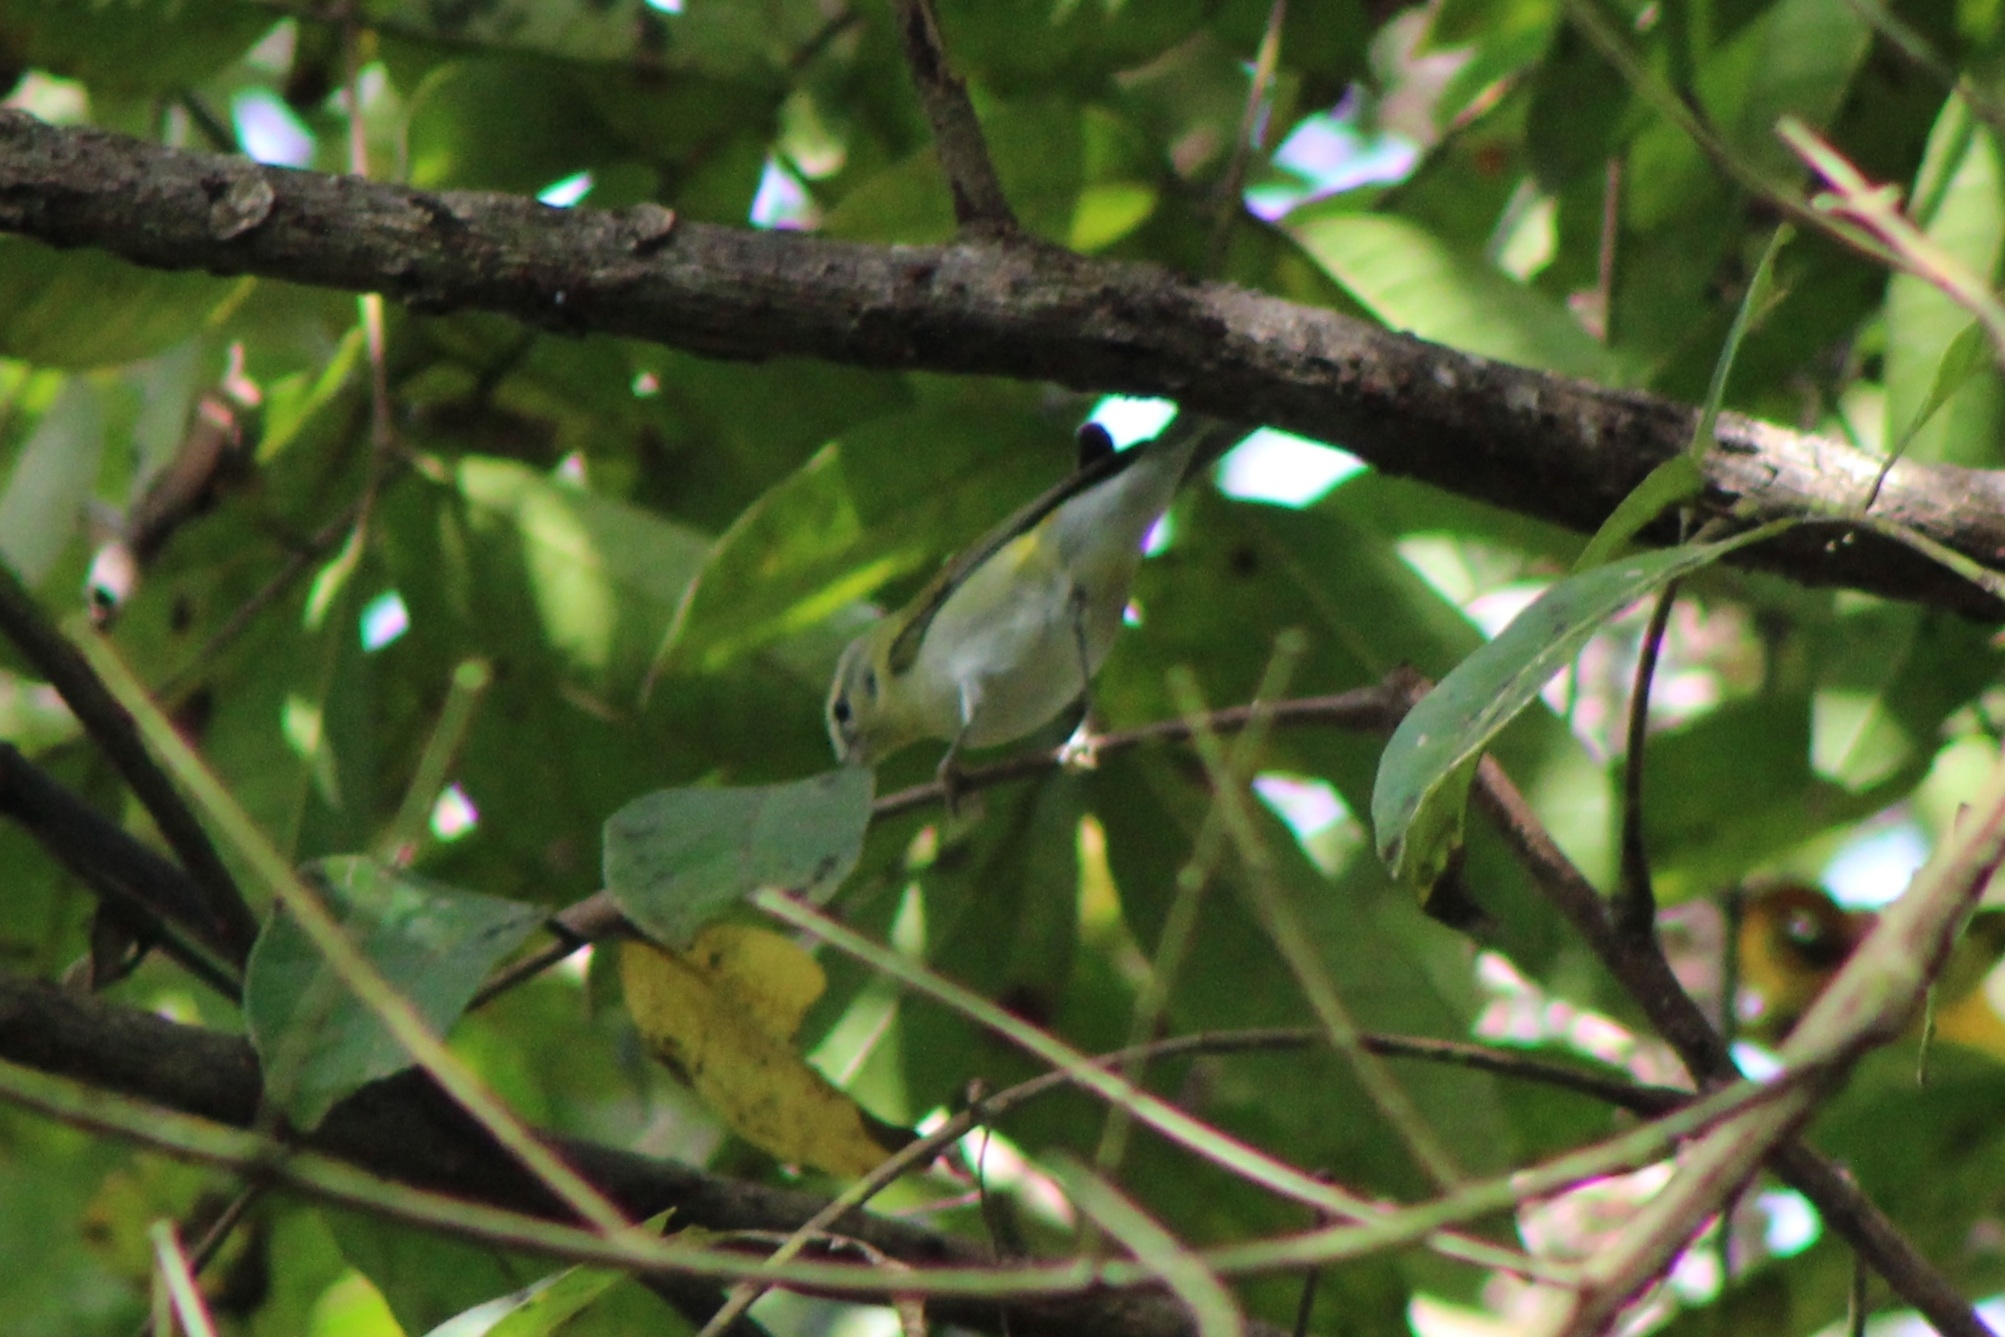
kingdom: Animalia
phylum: Chordata
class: Aves
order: Passeriformes
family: Parulidae
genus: Leiothlypis
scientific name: Leiothlypis peregrina
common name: Tennessee warbler
